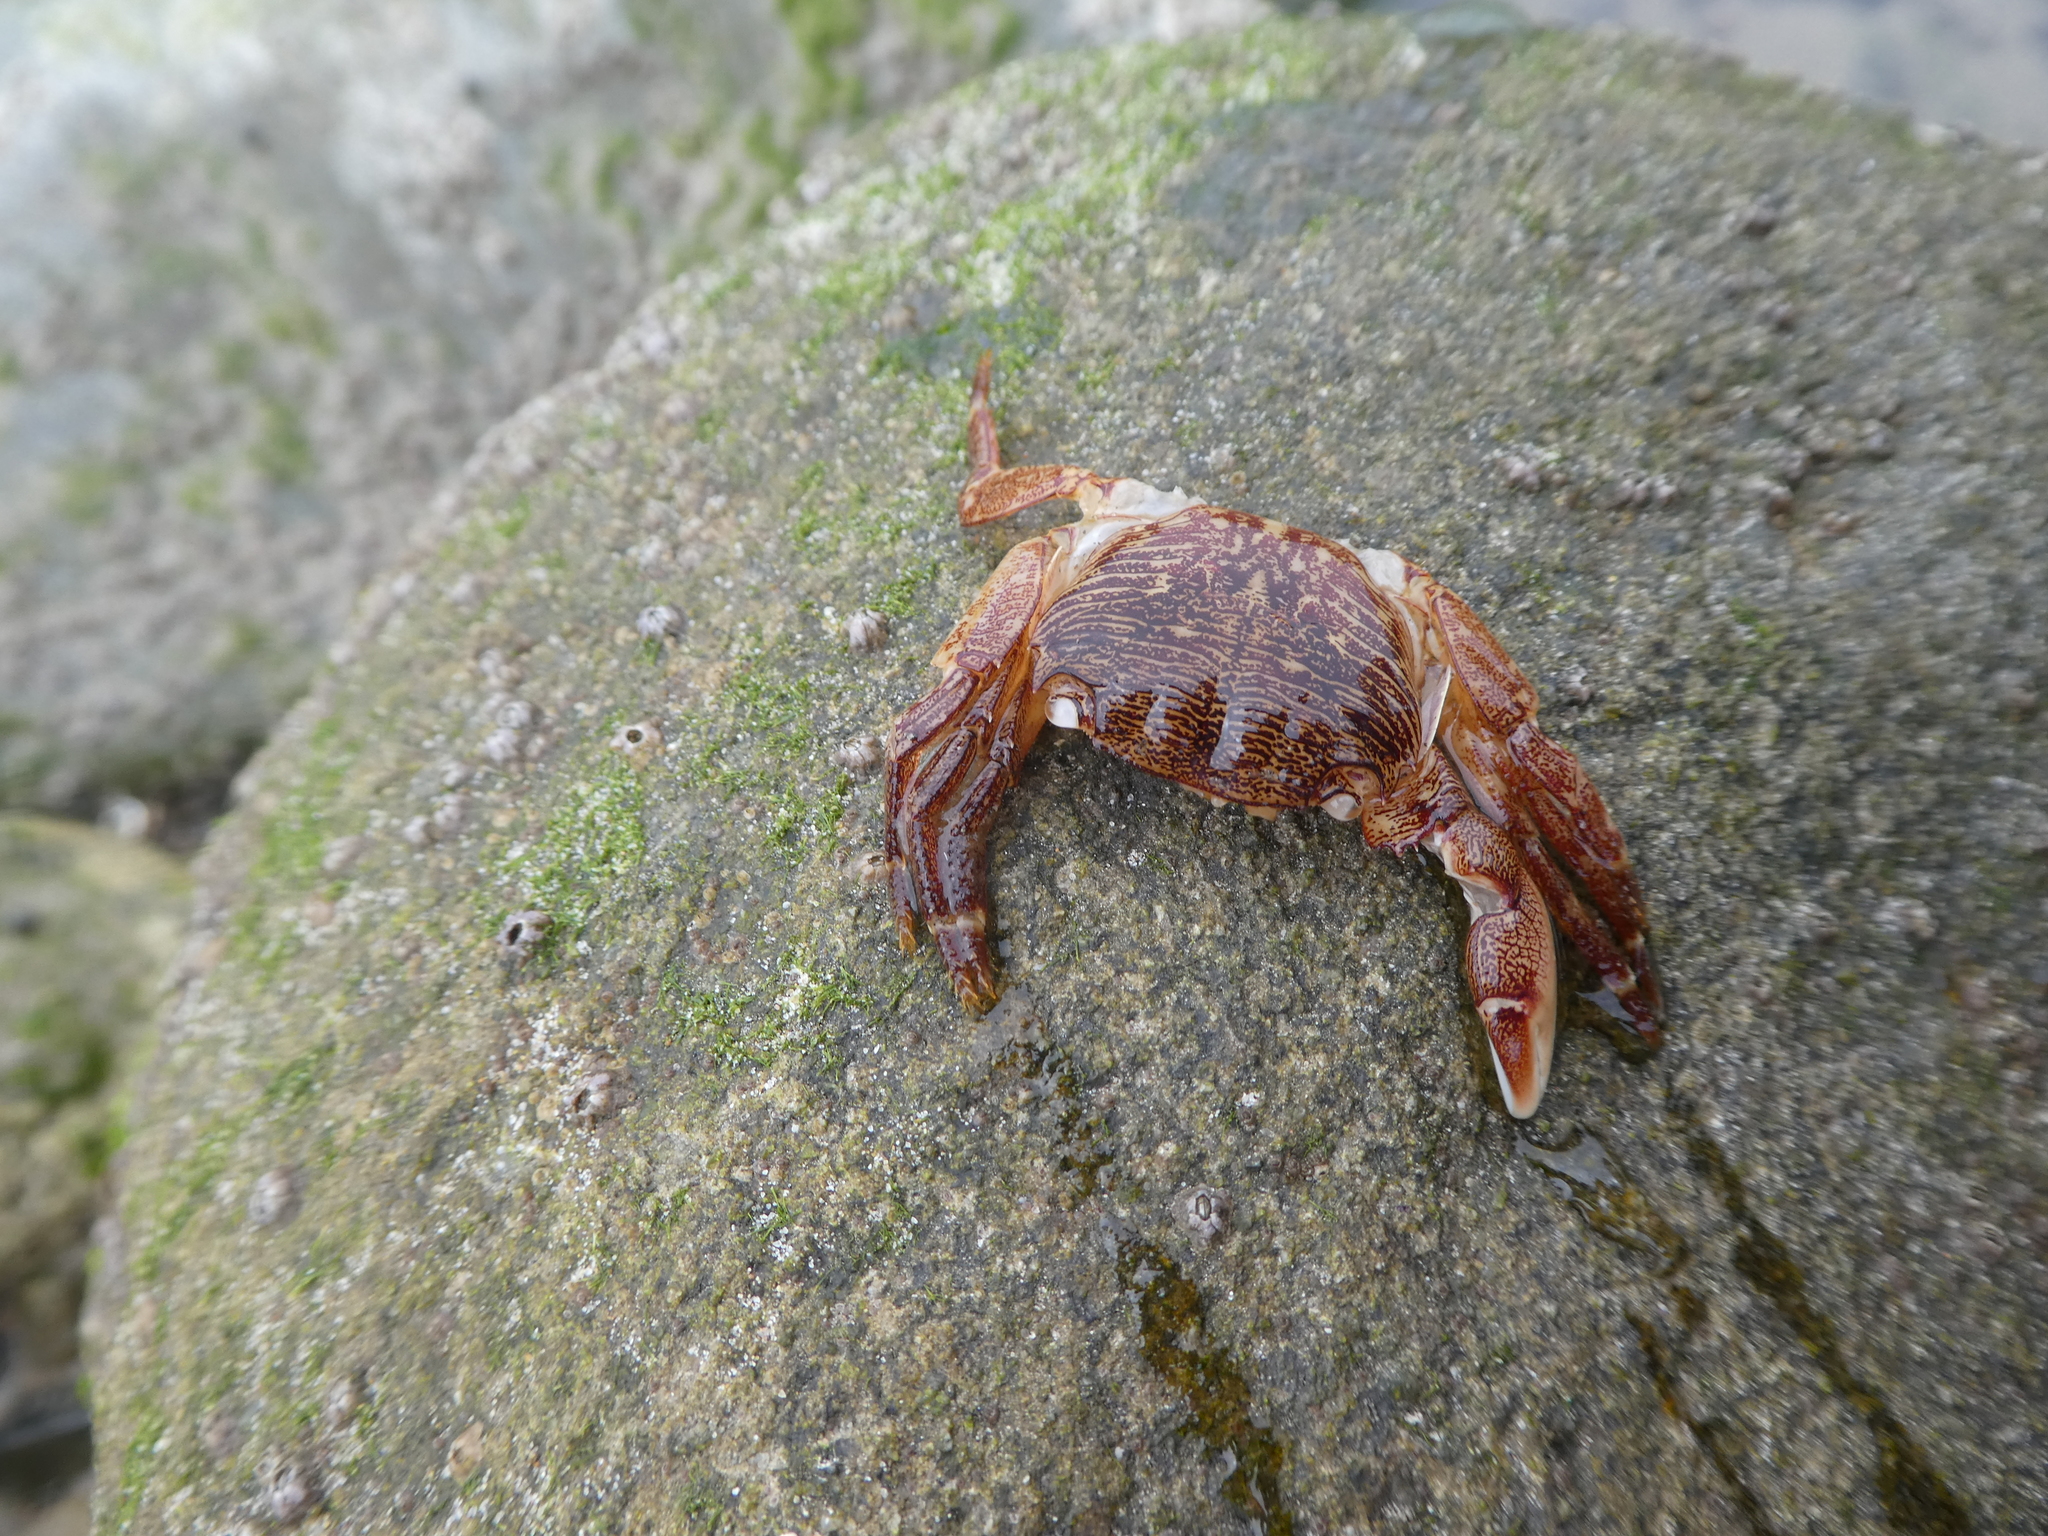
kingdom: Animalia
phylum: Arthropoda
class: Malacostraca
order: Decapoda
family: Grapsidae
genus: Pachygrapsus
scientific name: Pachygrapsus crassipes
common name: Striped shore crab
